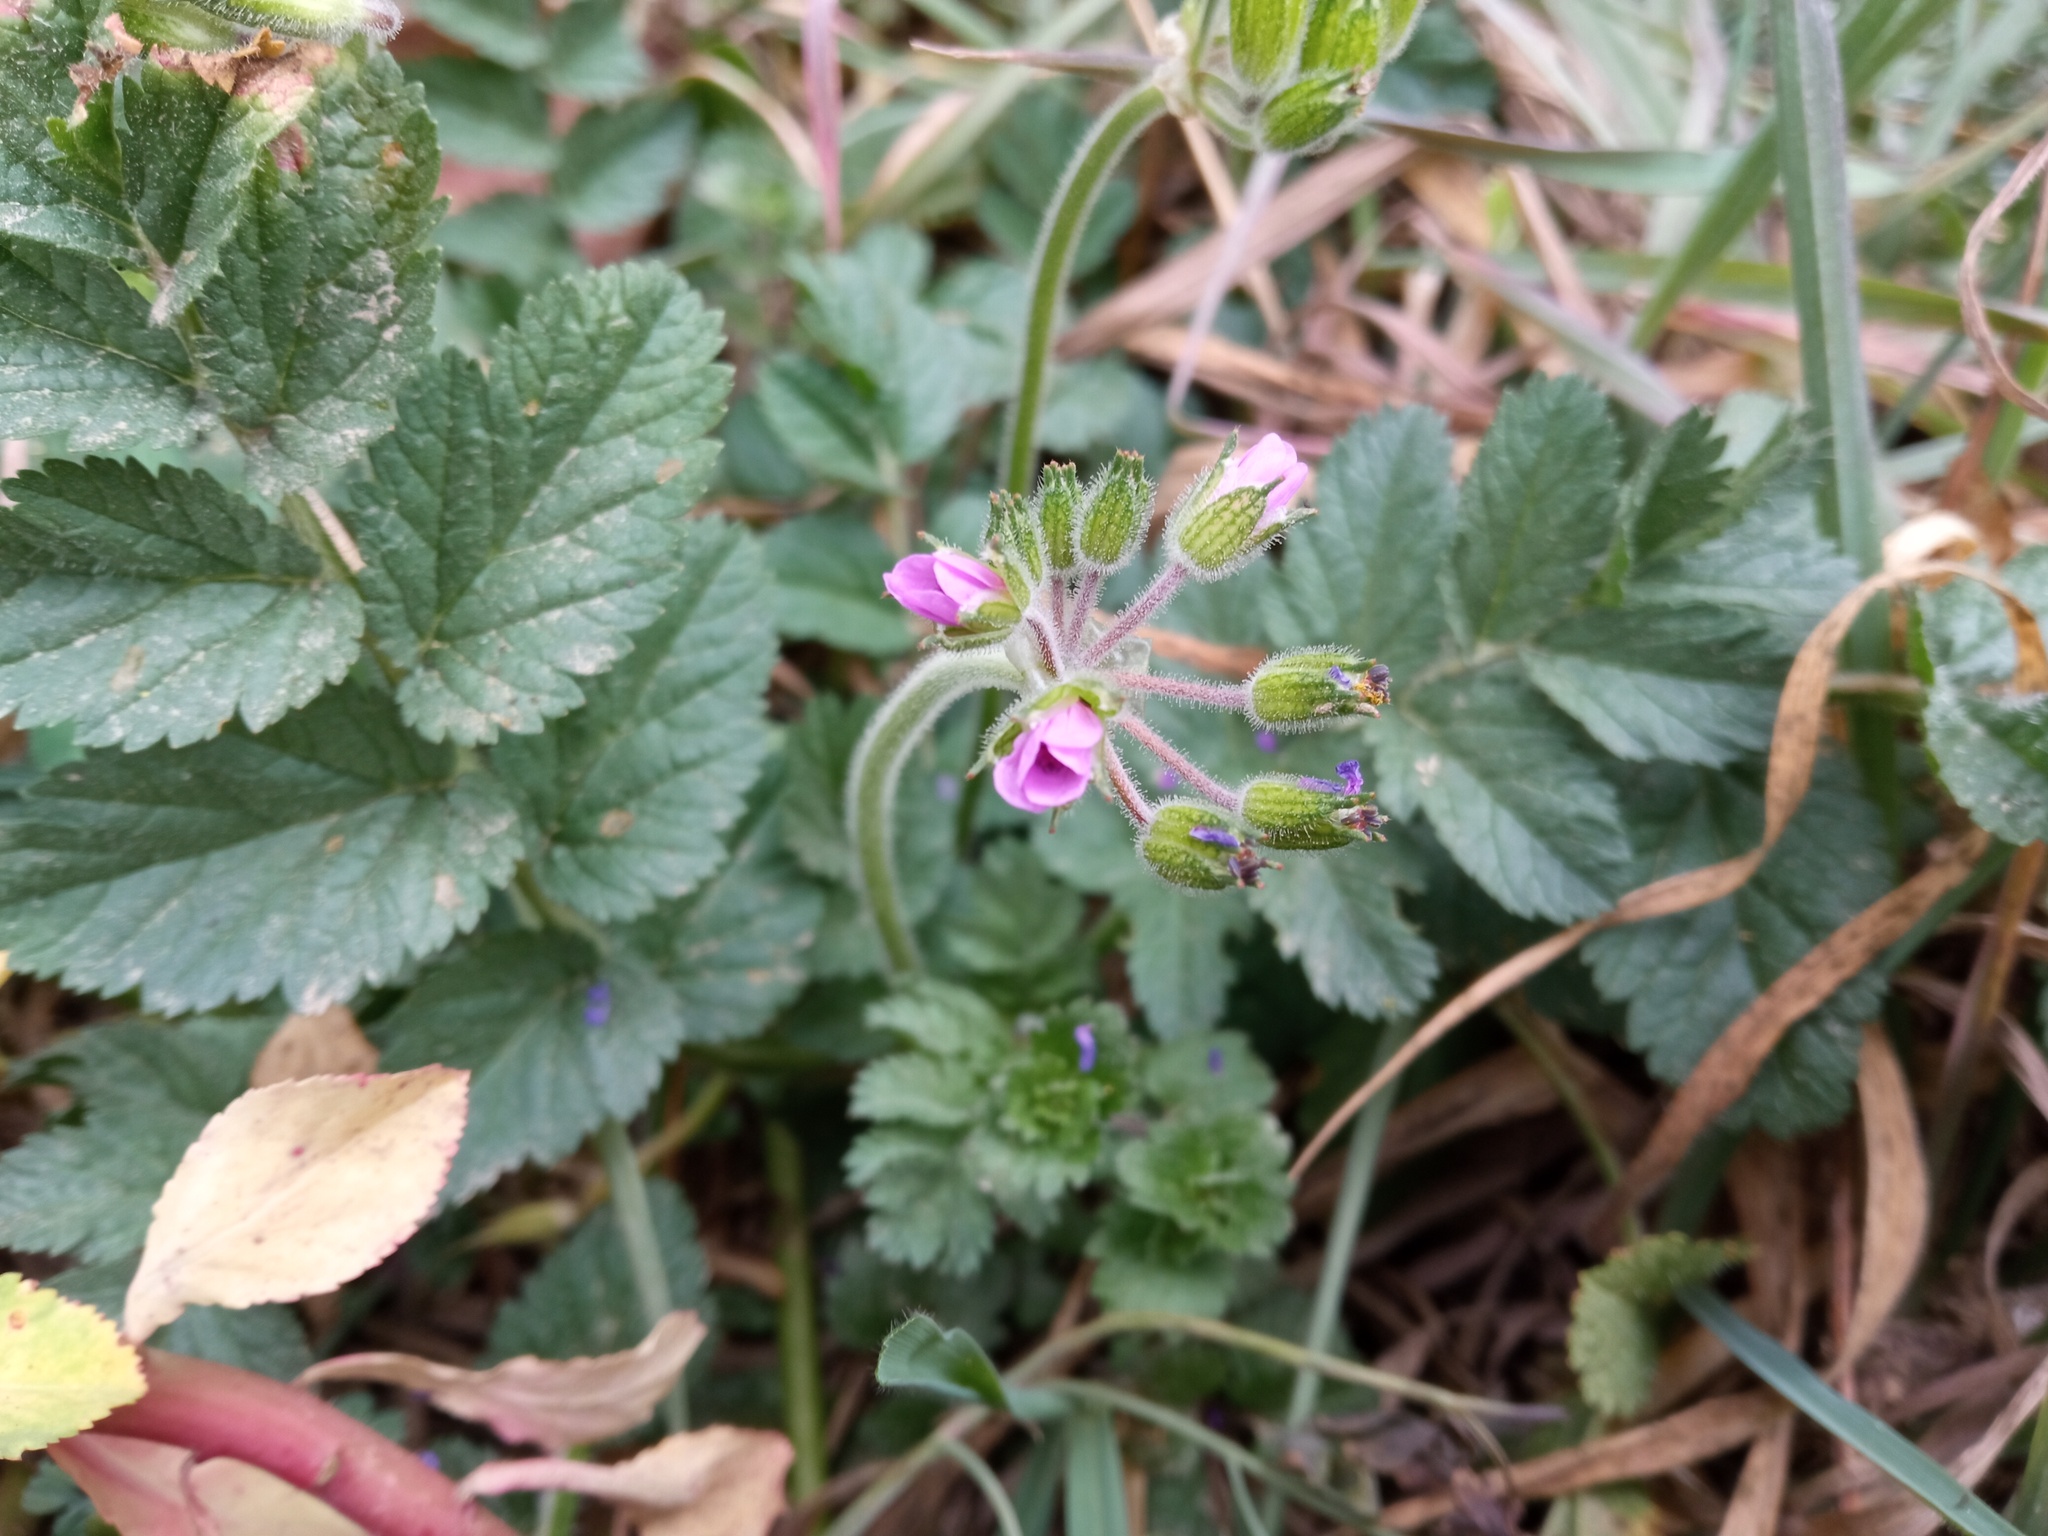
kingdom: Plantae
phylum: Tracheophyta
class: Magnoliopsida
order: Geraniales
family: Geraniaceae
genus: Erodium
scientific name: Erodium moschatum
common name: Musk stork's-bill
